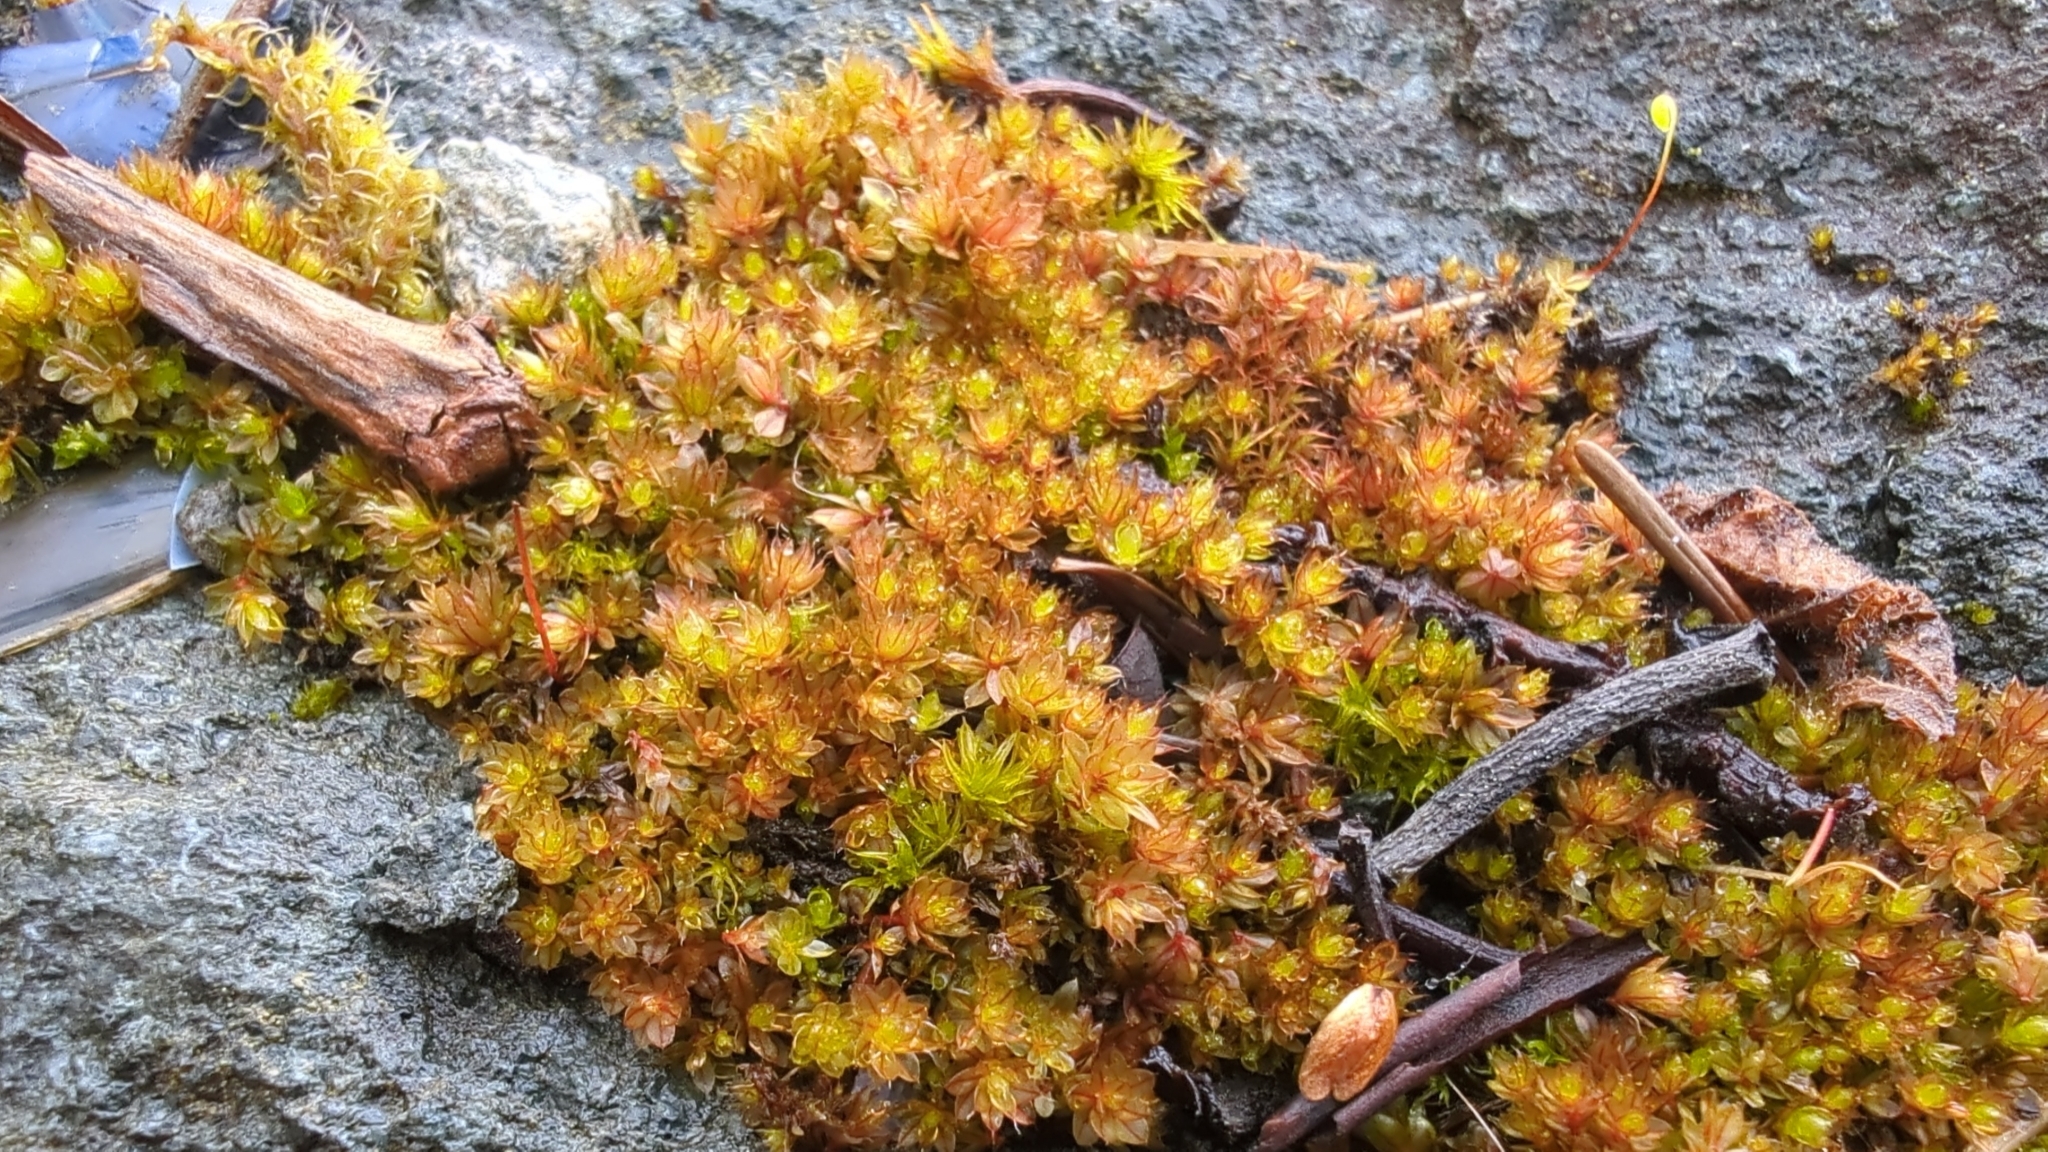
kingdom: Plantae
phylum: Bryophyta
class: Bryopsida
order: Bryales
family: Bryaceae
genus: Rosulabryum
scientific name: Rosulabryum capillare
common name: Capillary thread-moss
